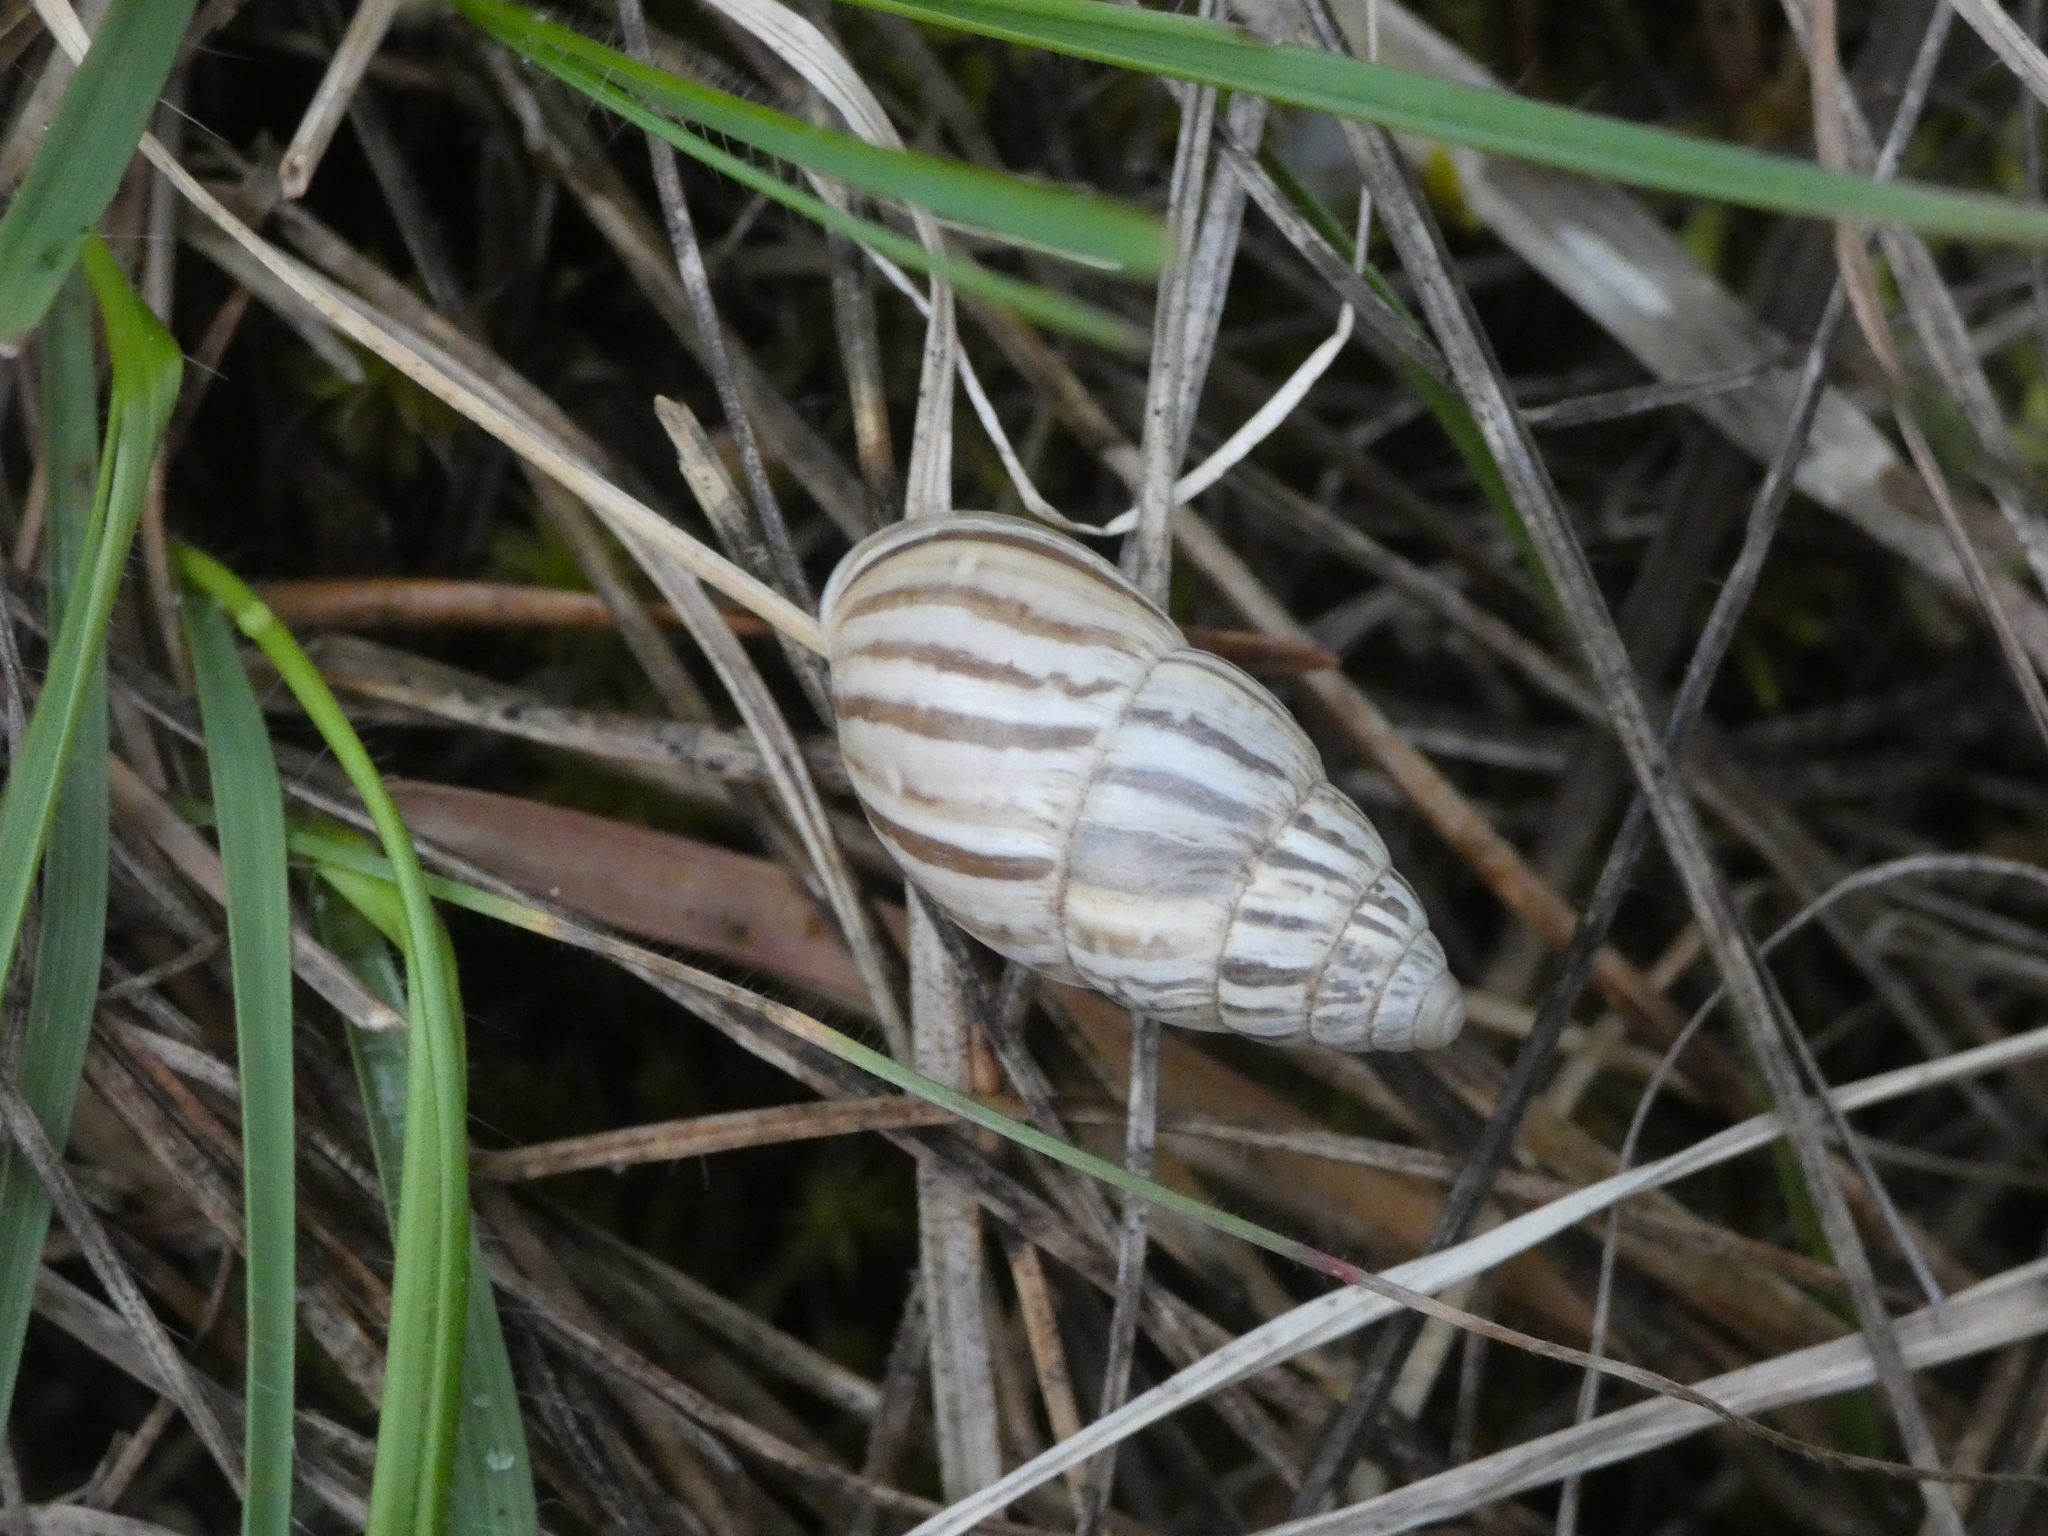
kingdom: Animalia
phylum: Mollusca
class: Gastropoda
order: Stylommatophora
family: Enidae
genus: Zebrina
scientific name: Zebrina detrita
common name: Large bulin
